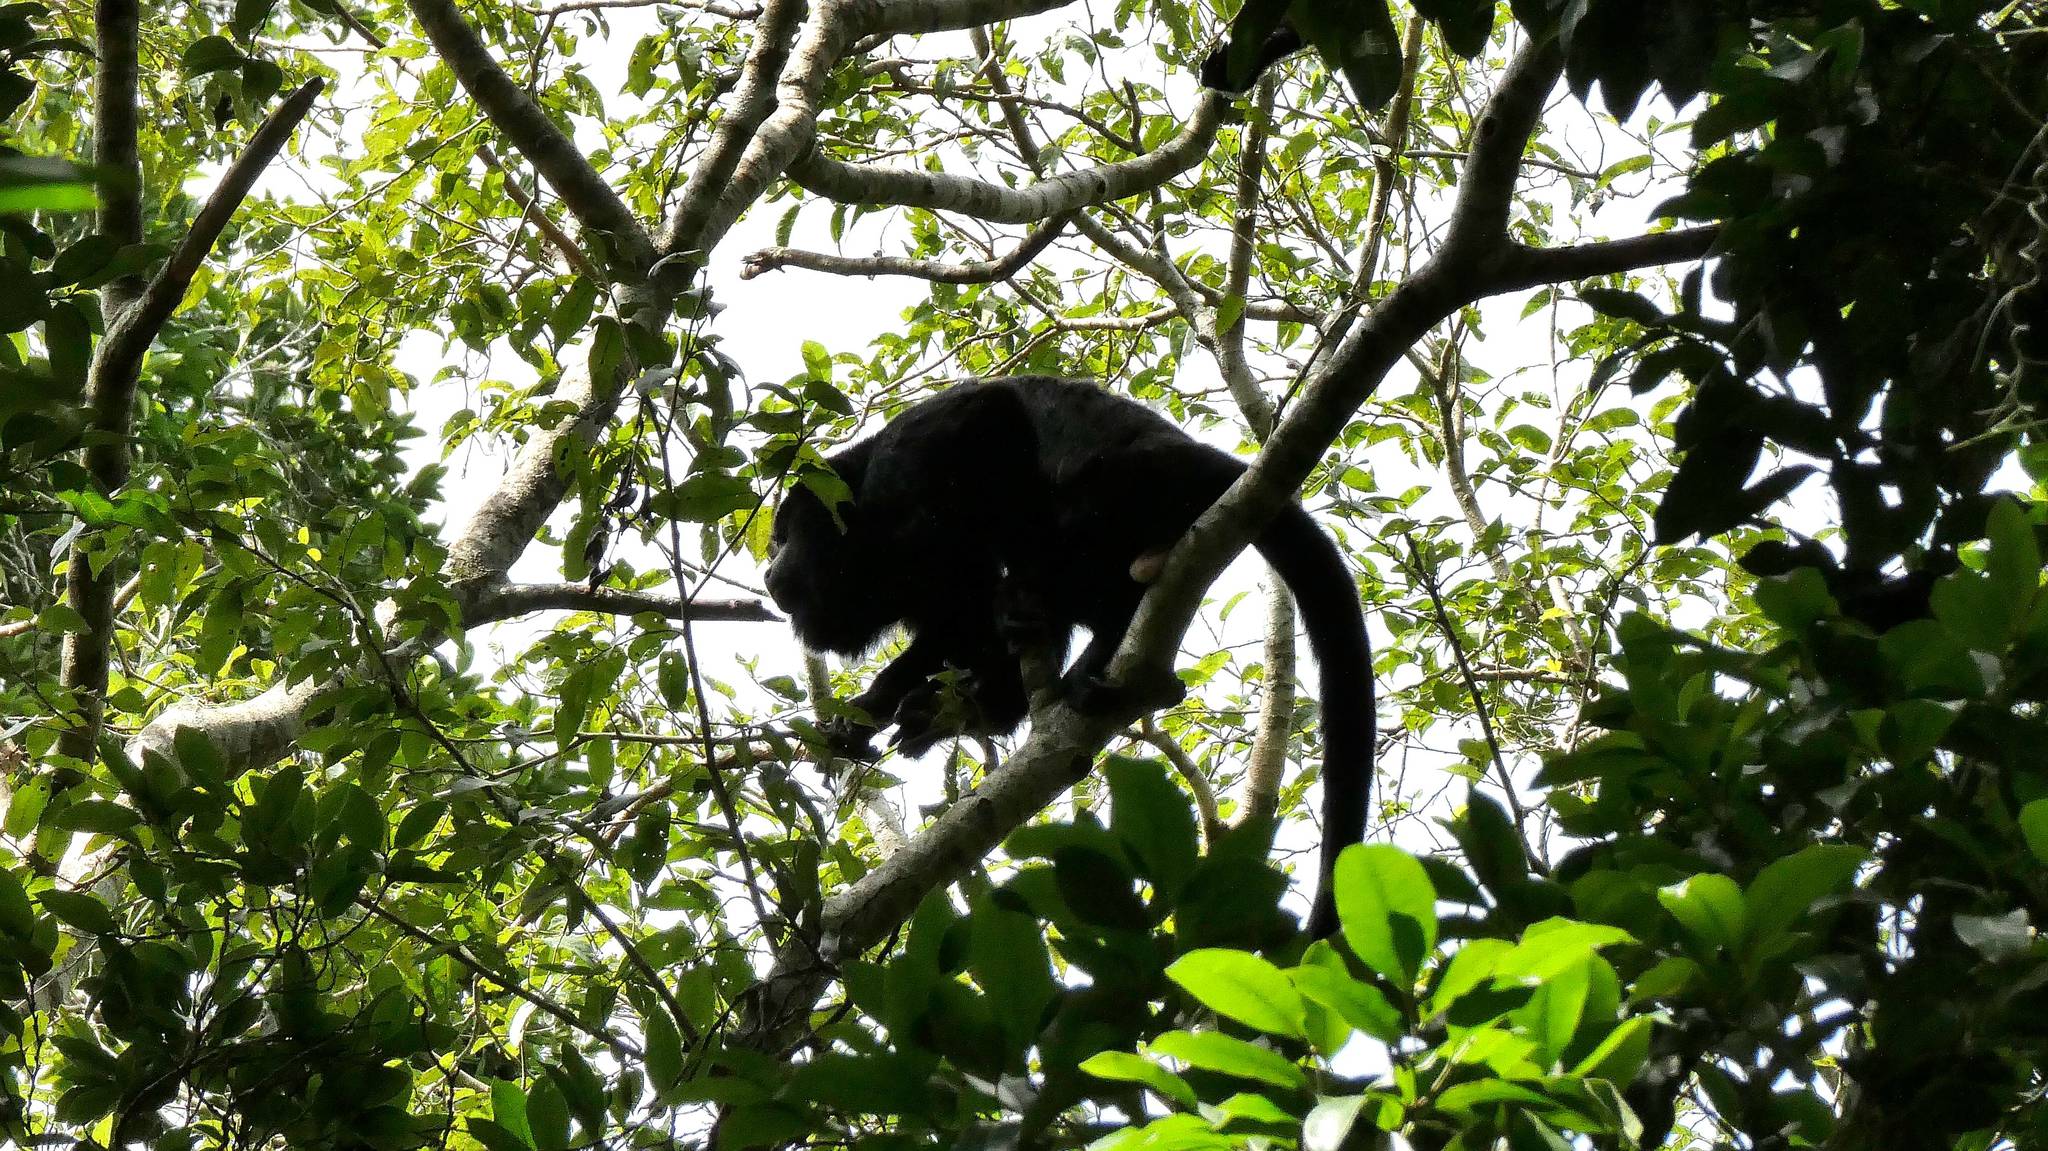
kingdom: Animalia
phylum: Chordata
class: Mammalia
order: Primates
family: Atelidae
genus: Alouatta
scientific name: Alouatta pigra
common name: Guatemalan black howler
